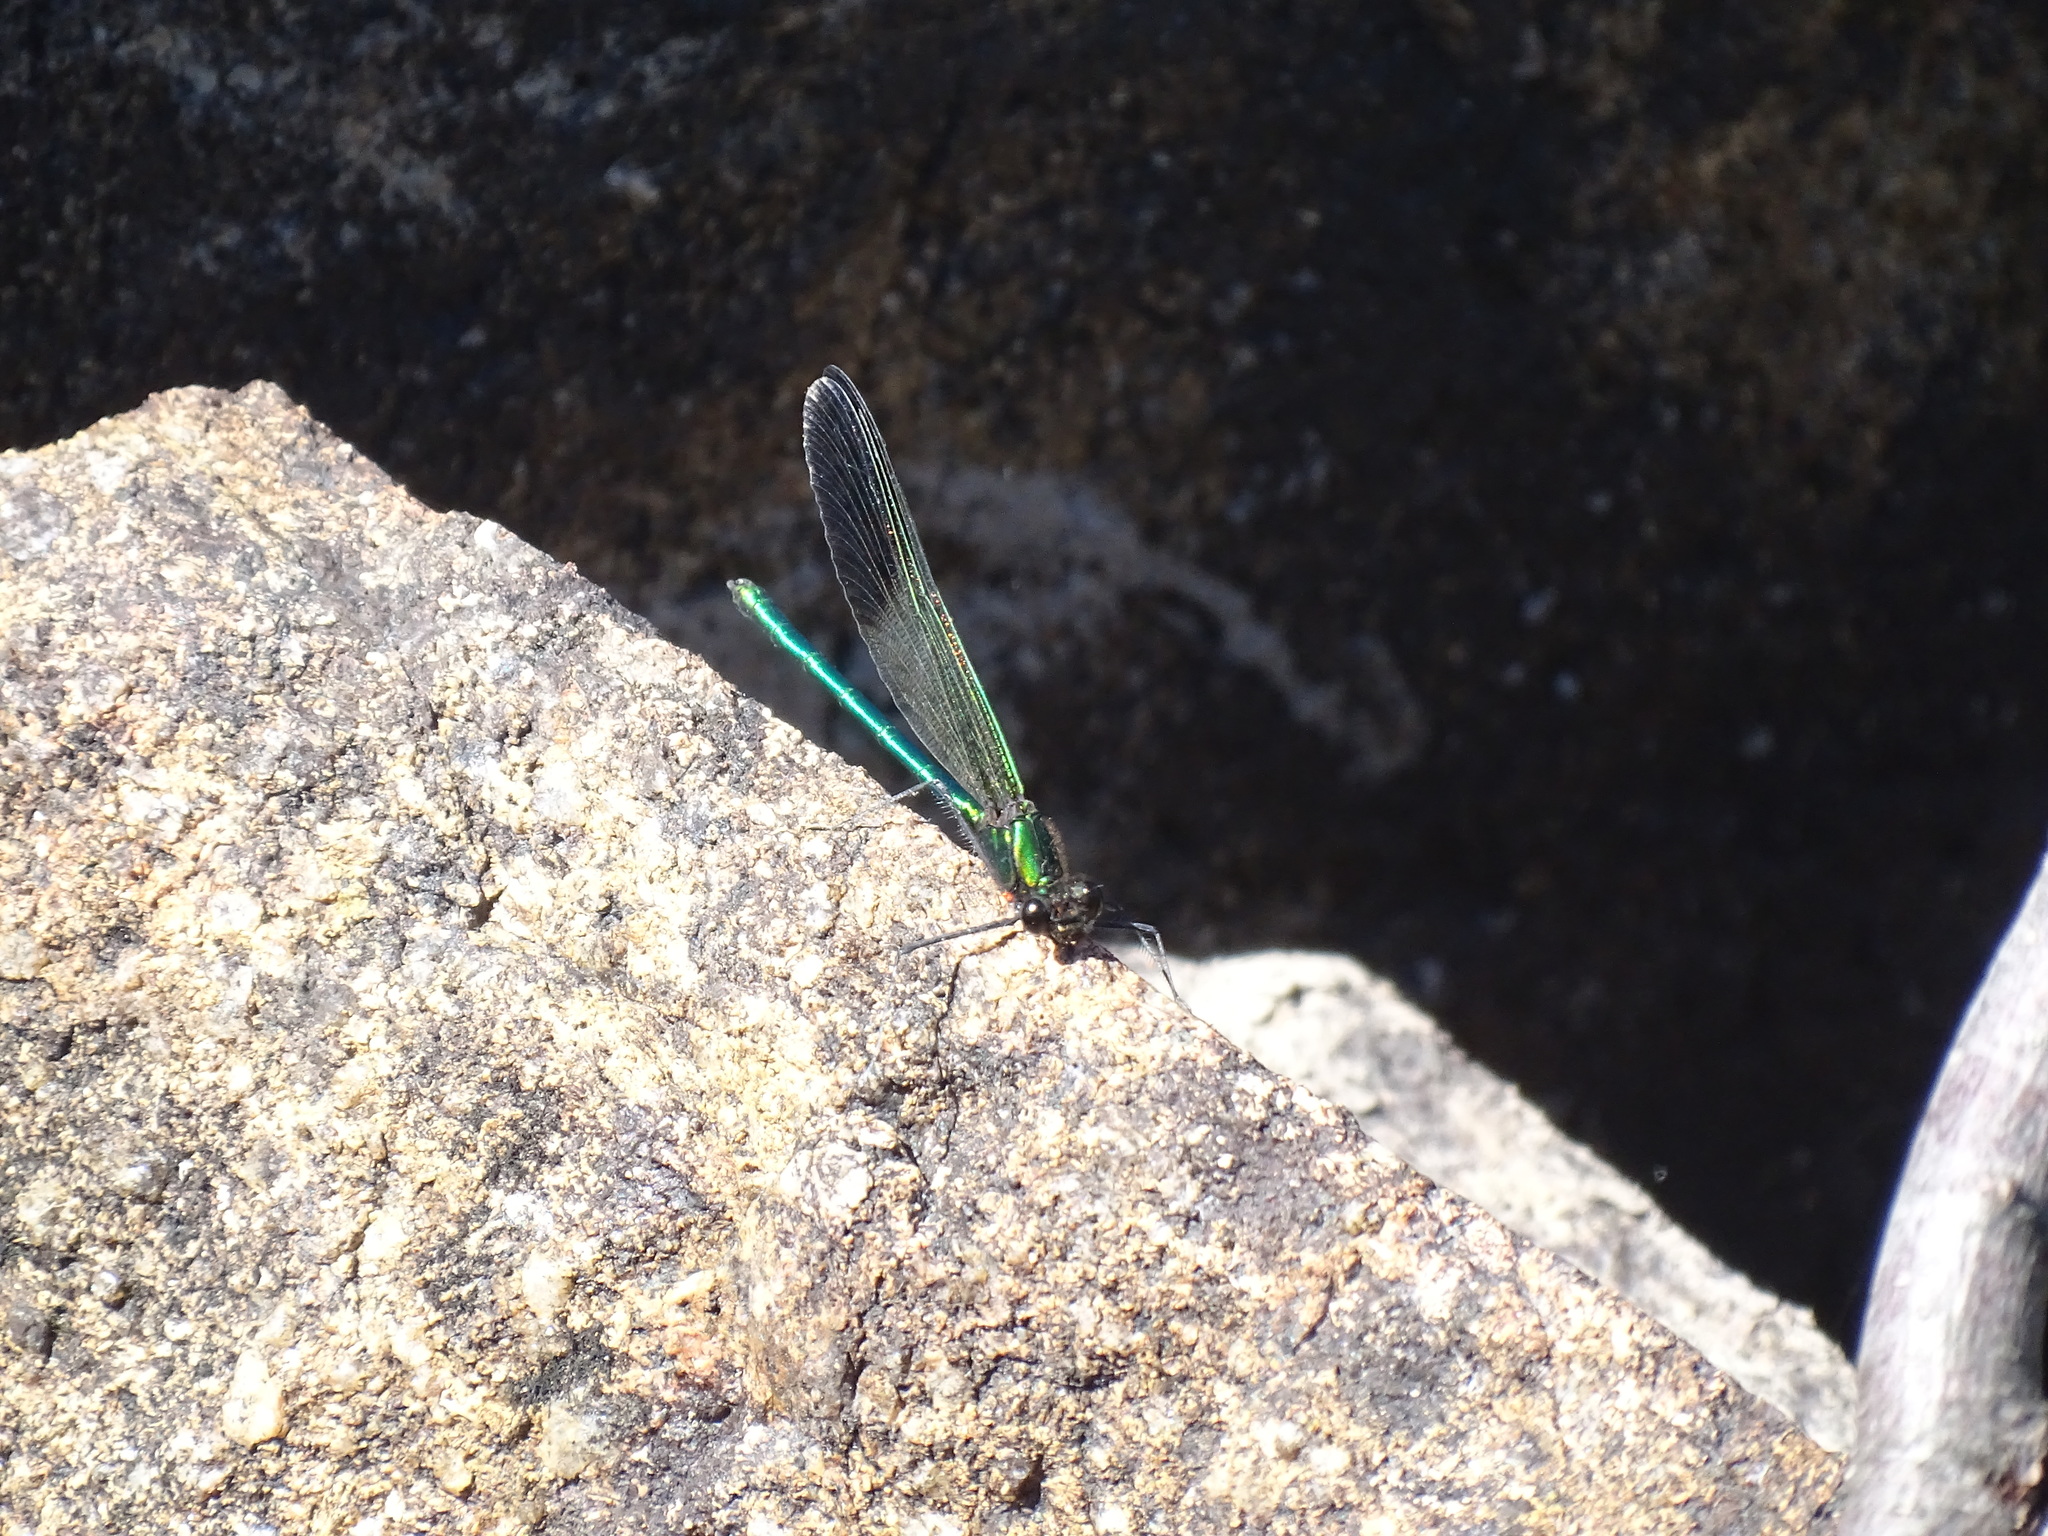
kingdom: Animalia
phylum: Arthropoda
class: Insecta
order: Odonata
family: Calopterygidae
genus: Calopteryx
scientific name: Calopteryx aequabilis
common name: River jewelwing
